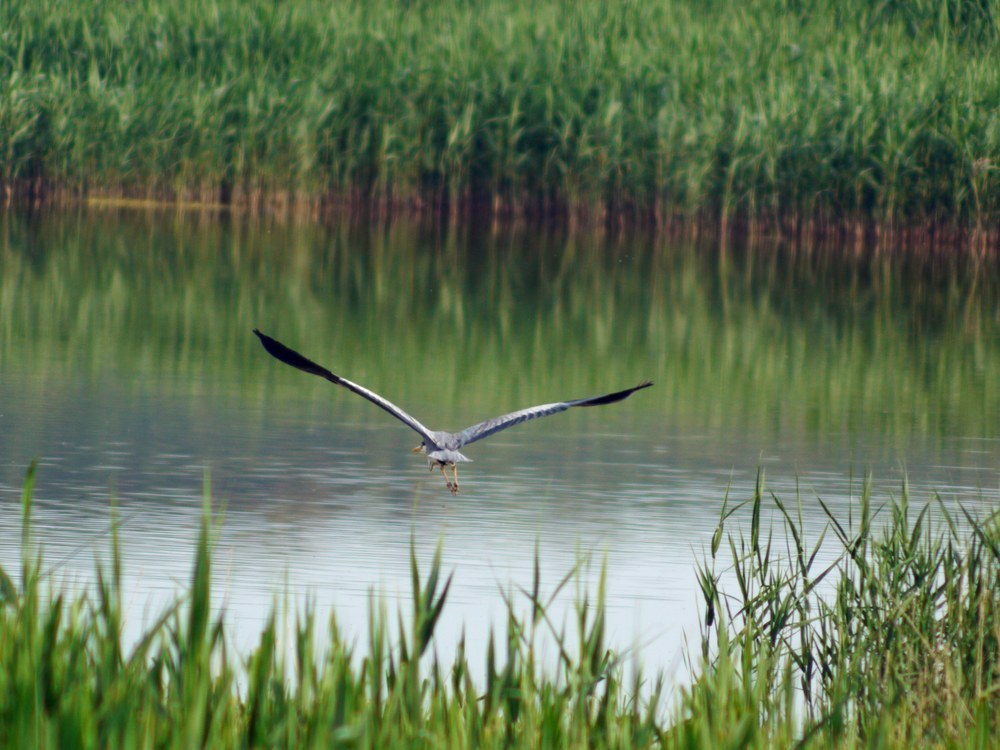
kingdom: Animalia
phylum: Chordata
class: Aves
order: Pelecaniformes
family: Ardeidae
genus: Ardea
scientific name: Ardea cinerea
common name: Grey heron
